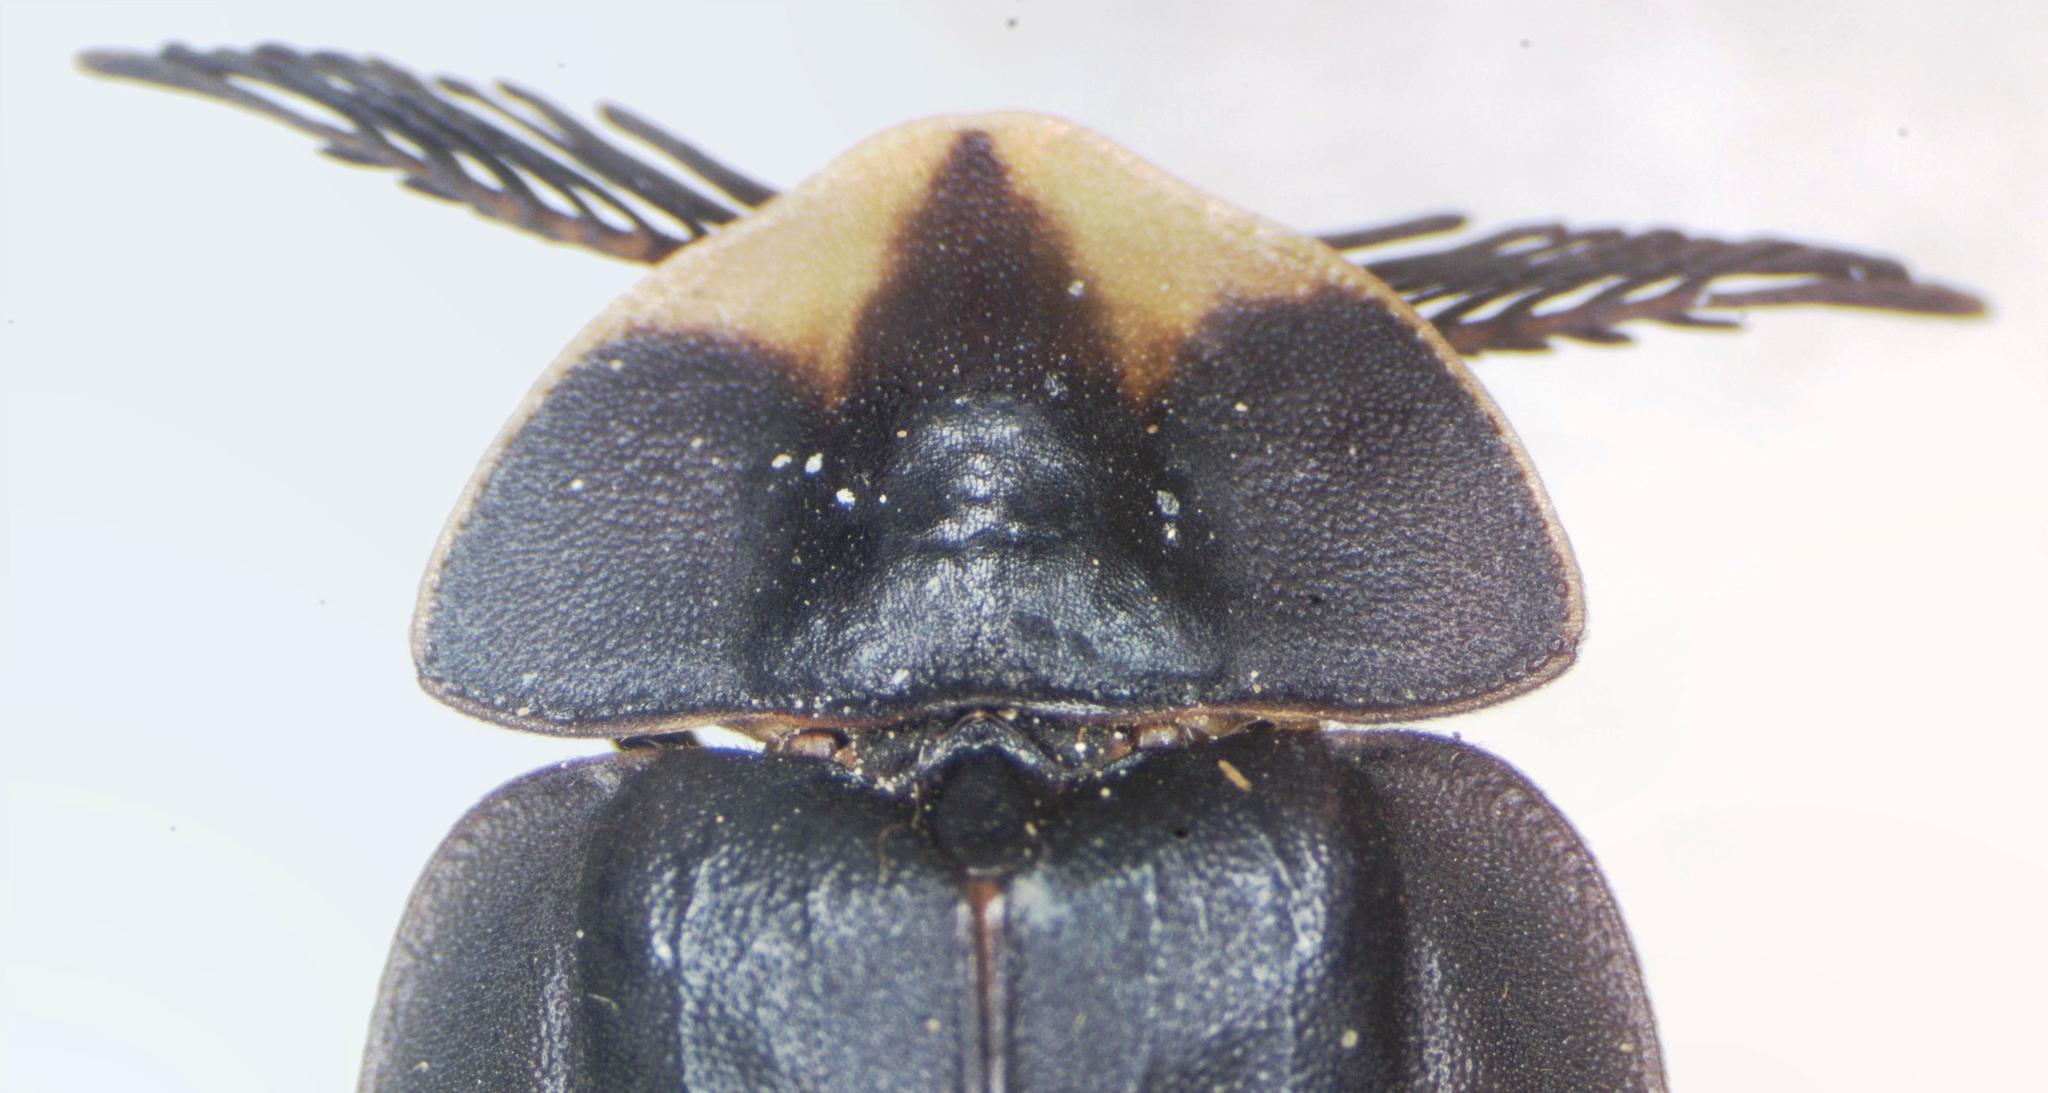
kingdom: Animalia
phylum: Arthropoda
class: Insecta
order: Coleoptera
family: Lampyridae
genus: Lucio
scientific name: Lucio pictum
